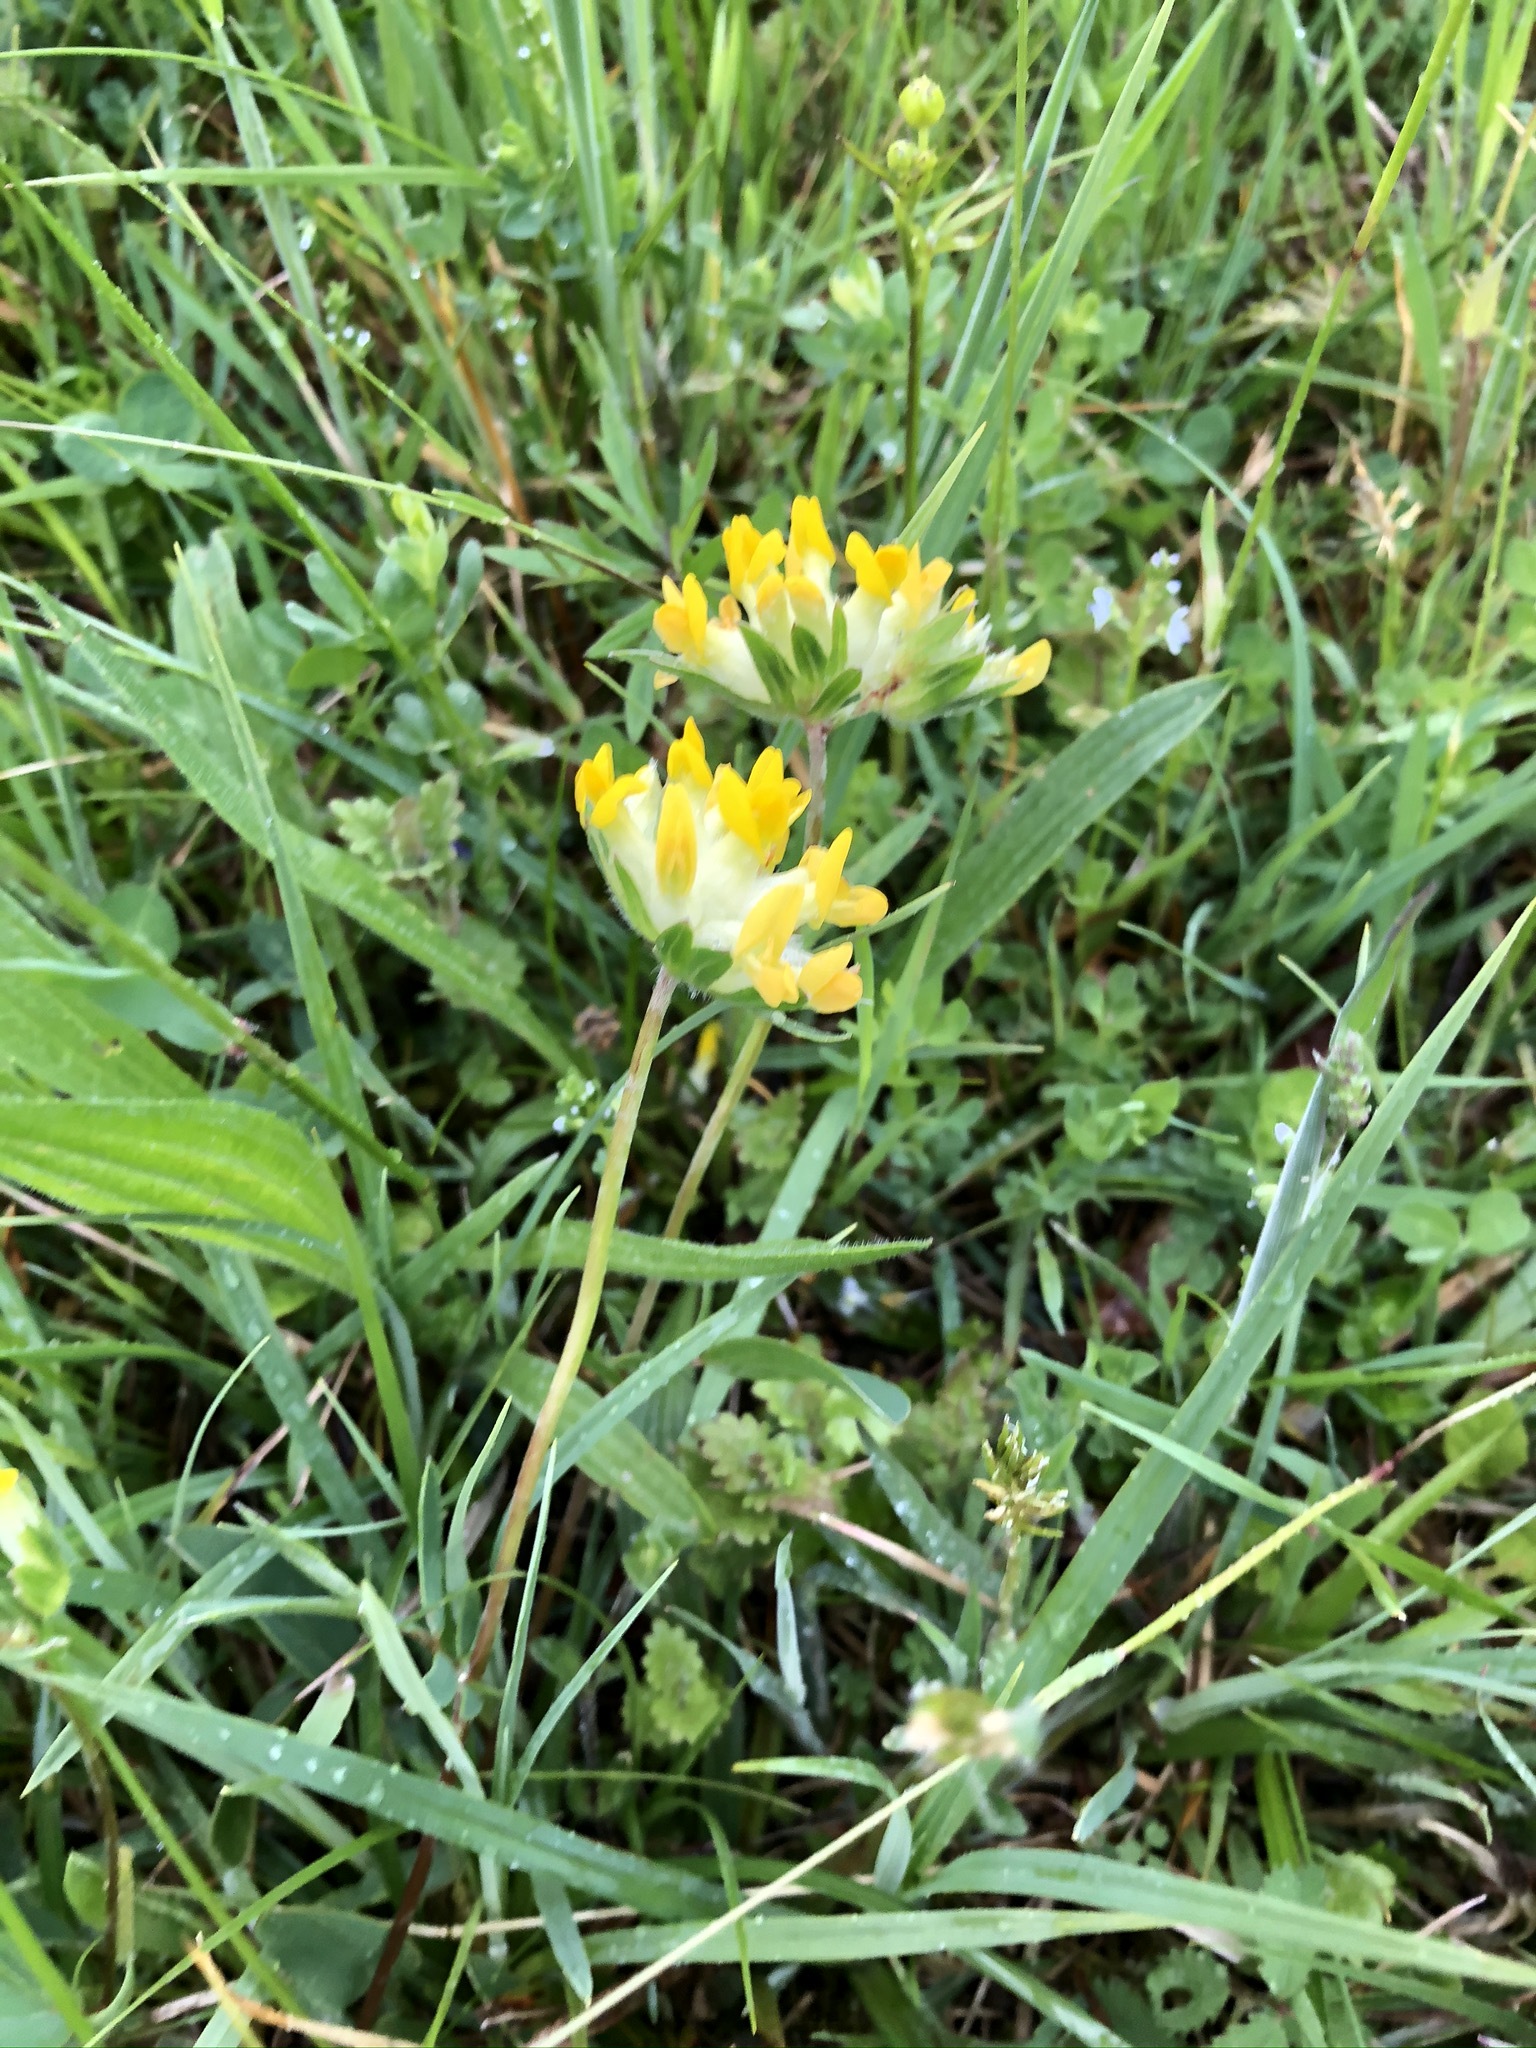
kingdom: Plantae
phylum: Tracheophyta
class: Magnoliopsida
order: Fabales
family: Fabaceae
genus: Anthyllis
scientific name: Anthyllis vulneraria
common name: Kidney vetch
